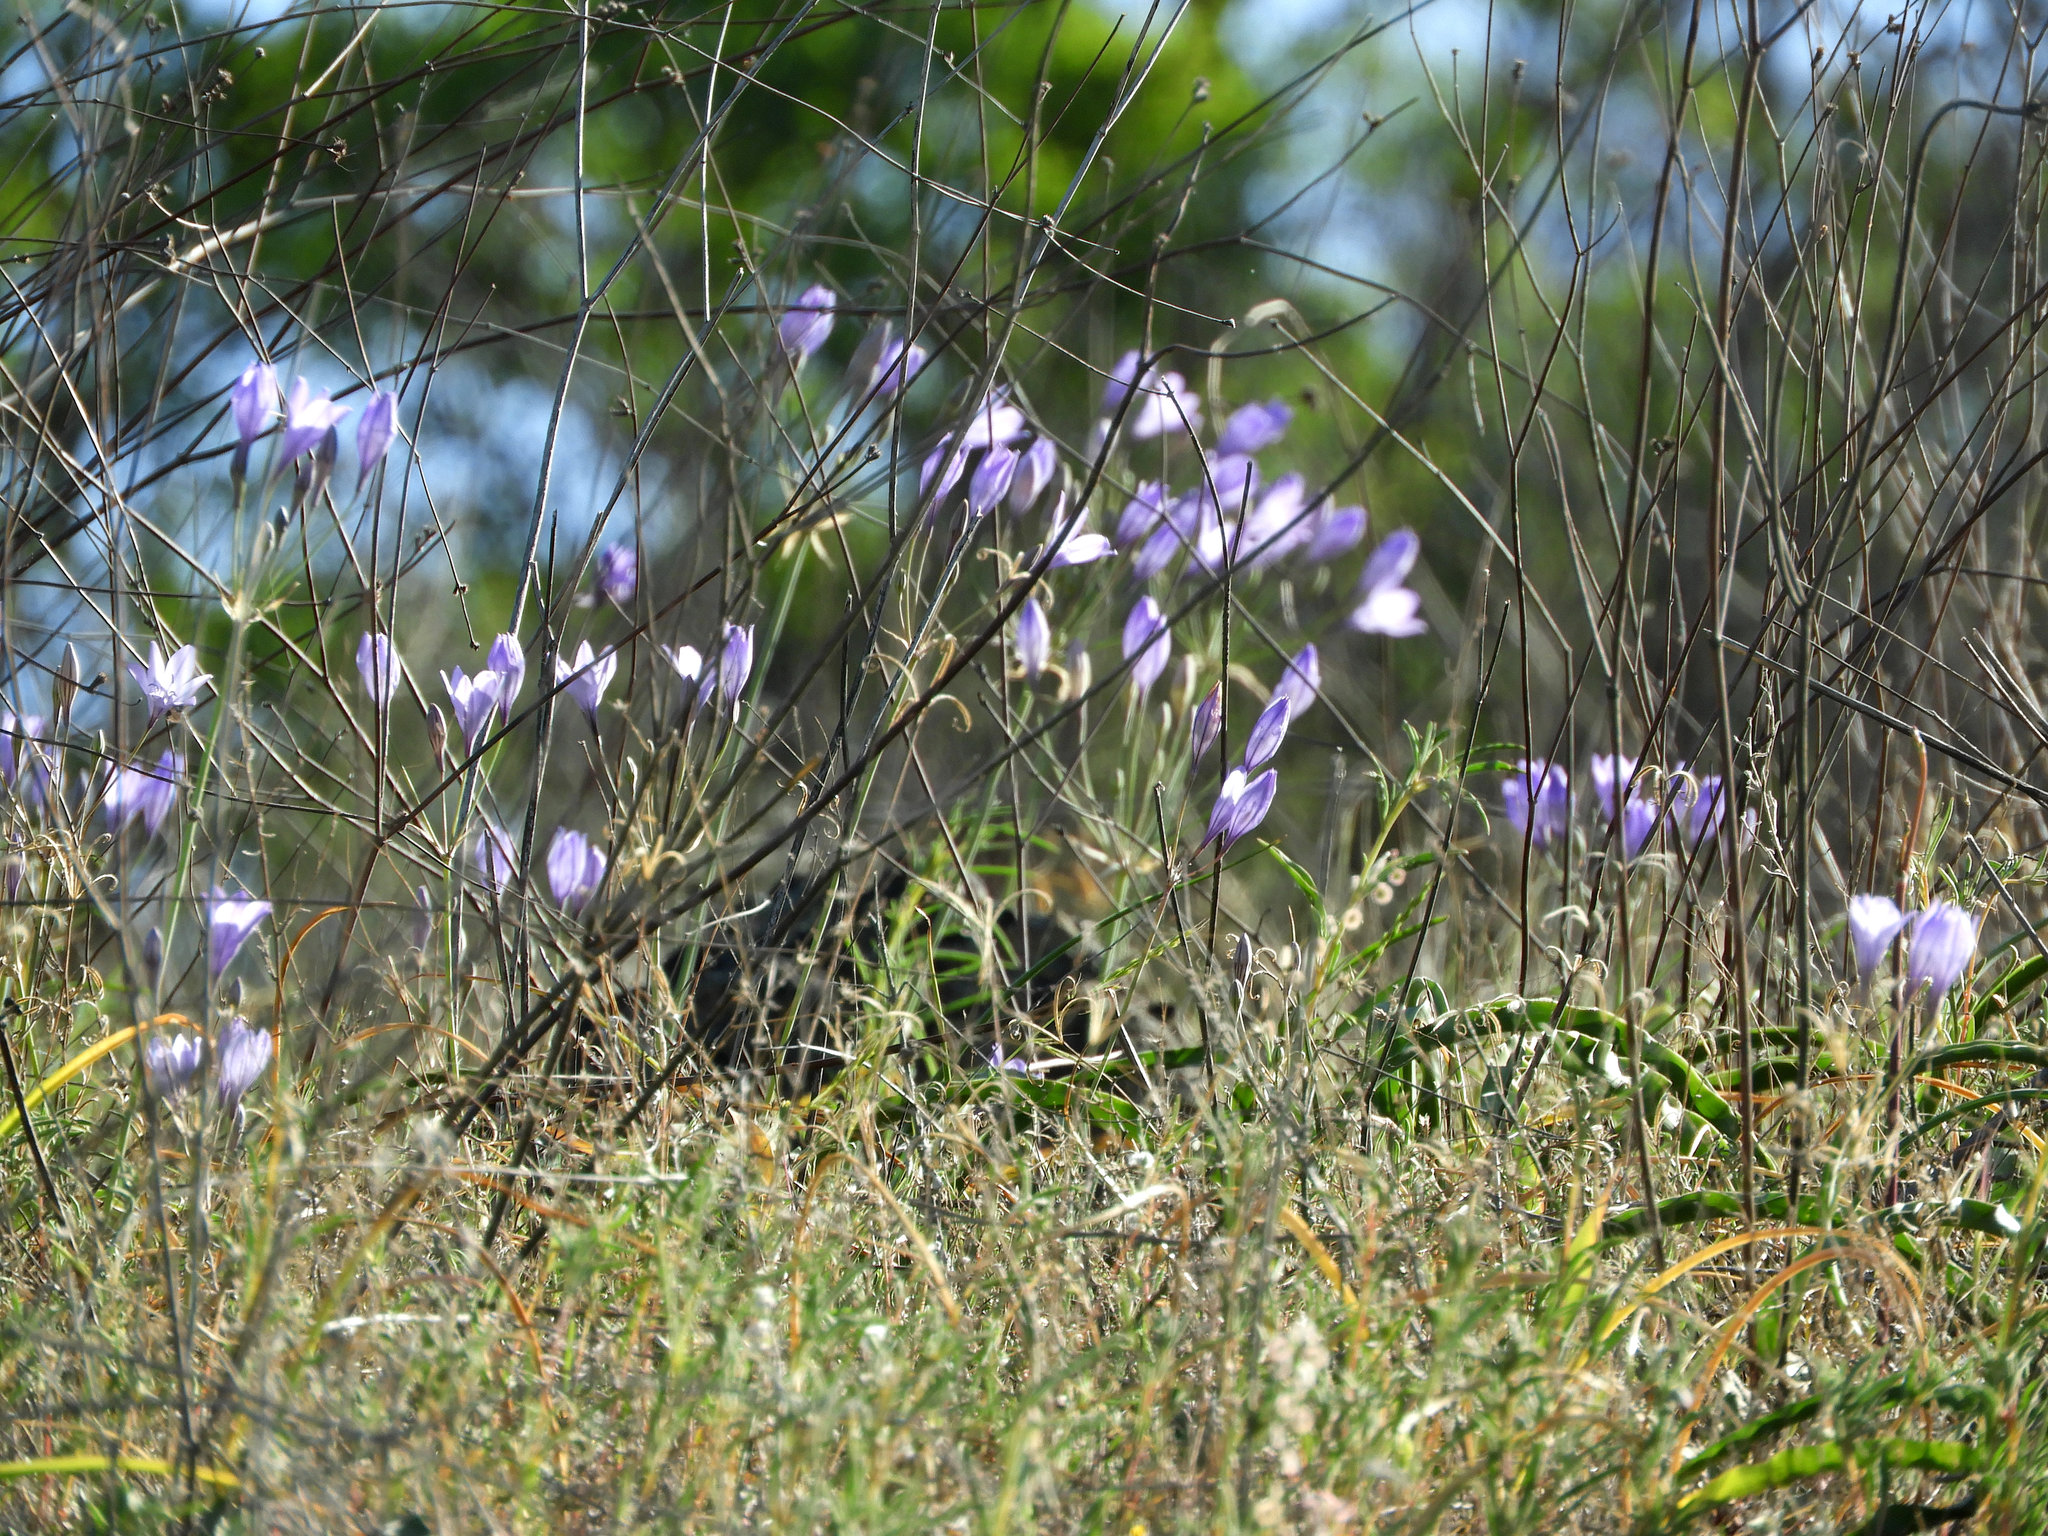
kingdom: Plantae
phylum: Tracheophyta
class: Liliopsida
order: Asparagales
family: Asparagaceae
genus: Triteleia
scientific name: Triteleia laxa
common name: Triplet-lily
